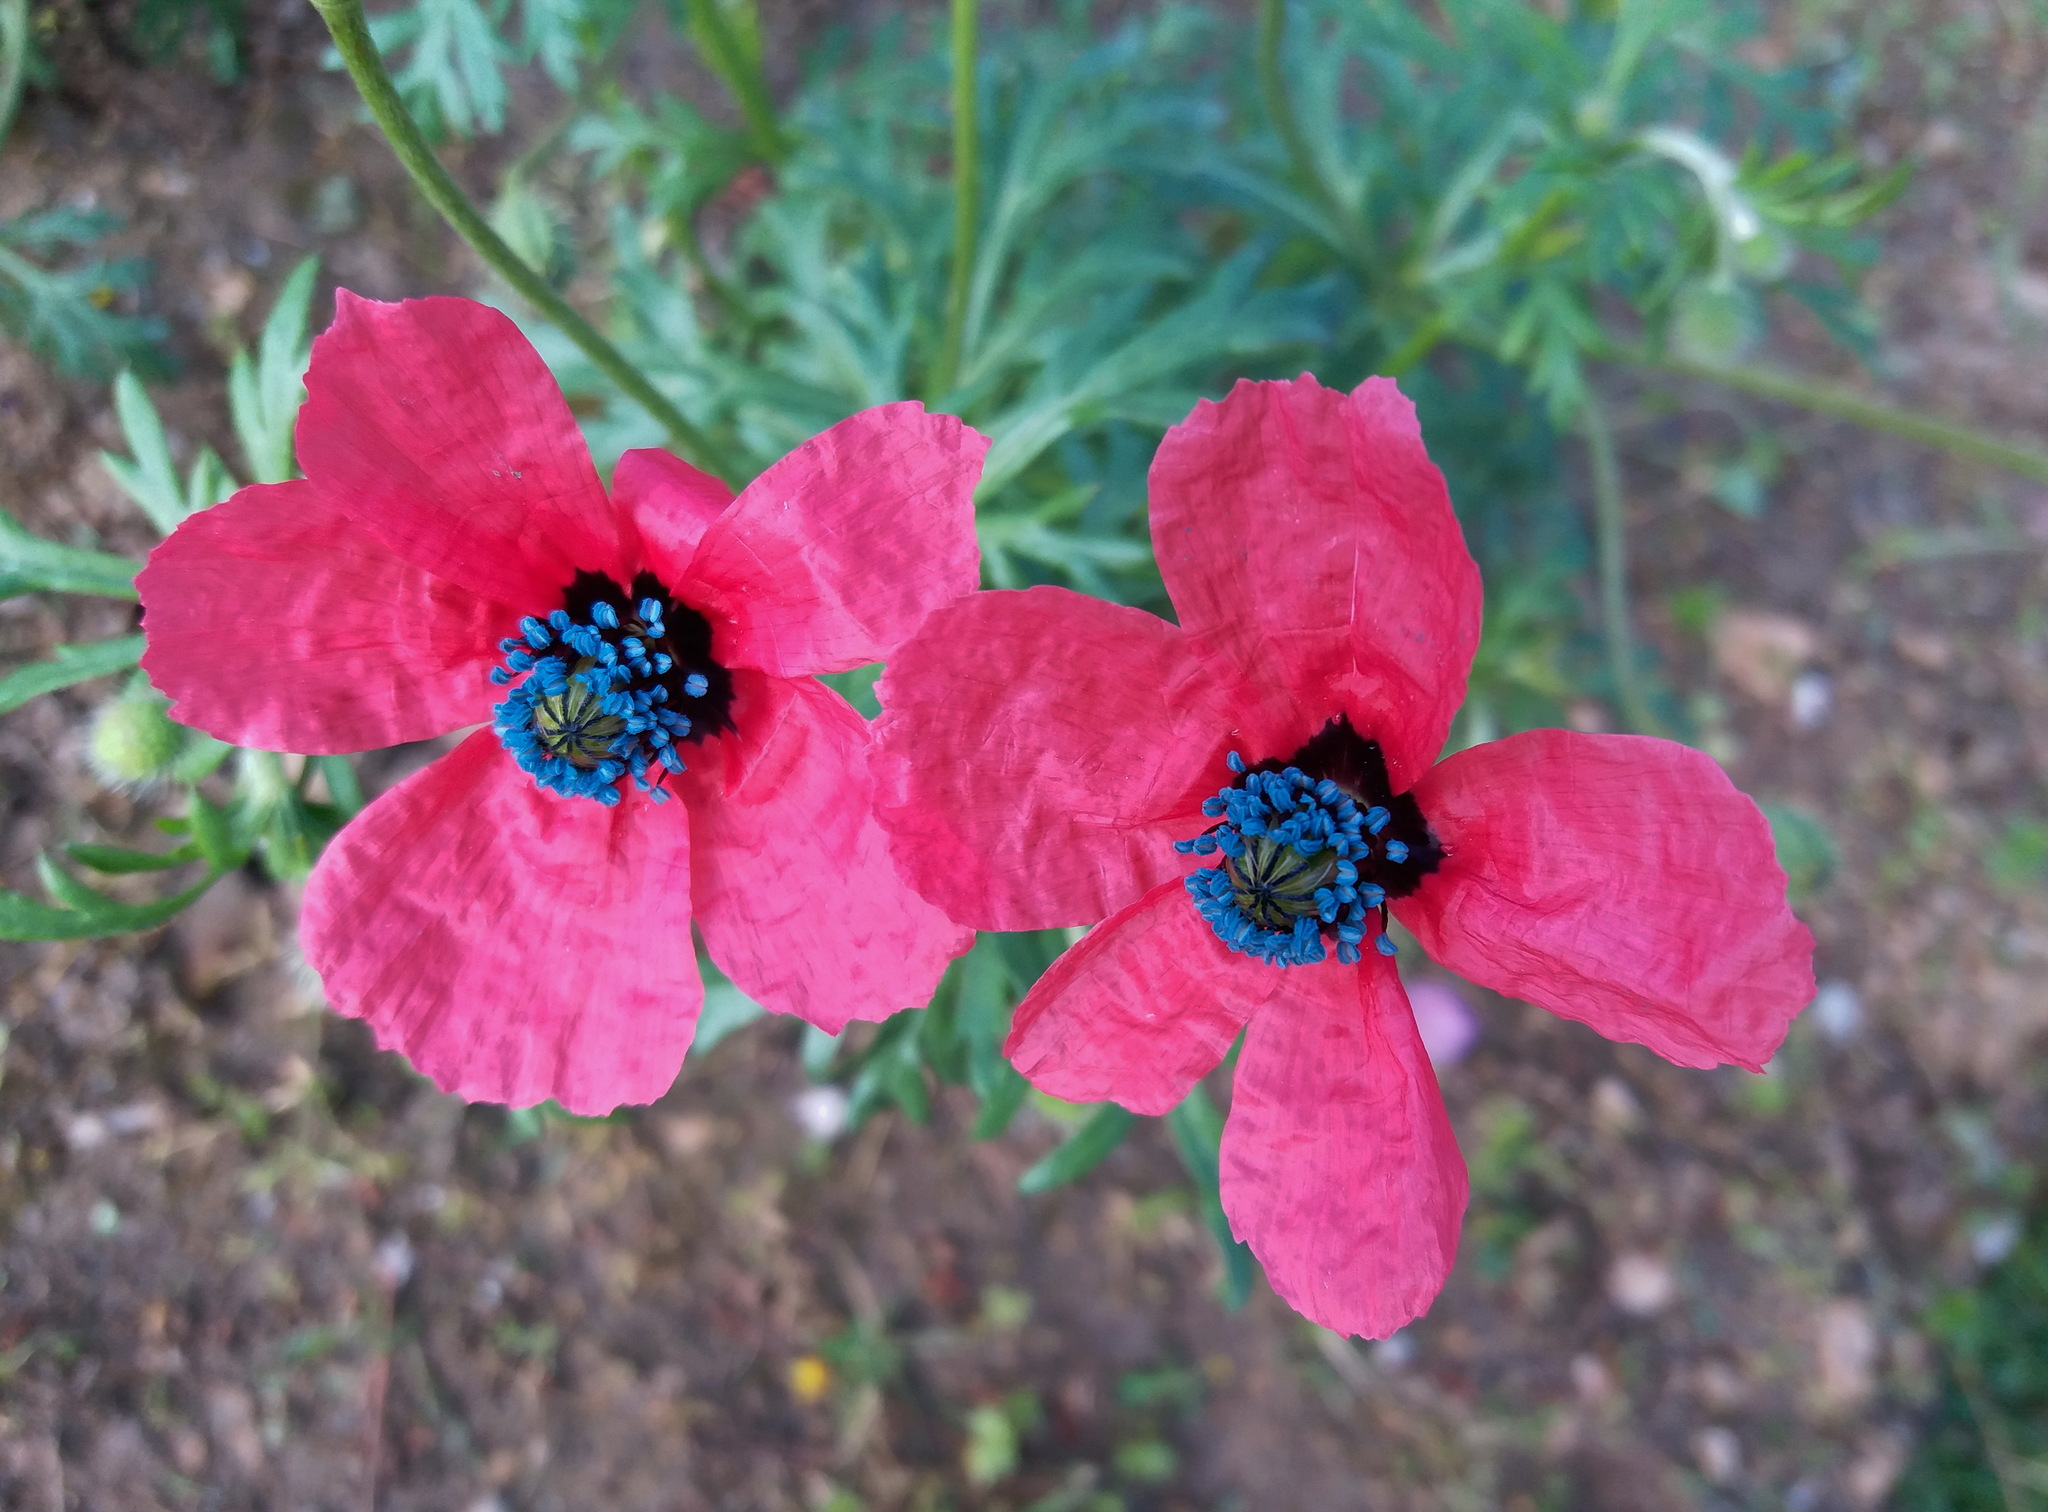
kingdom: Plantae
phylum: Tracheophyta
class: Magnoliopsida
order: Ranunculales
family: Papaveraceae
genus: Roemeria
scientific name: Roemeria hispida
